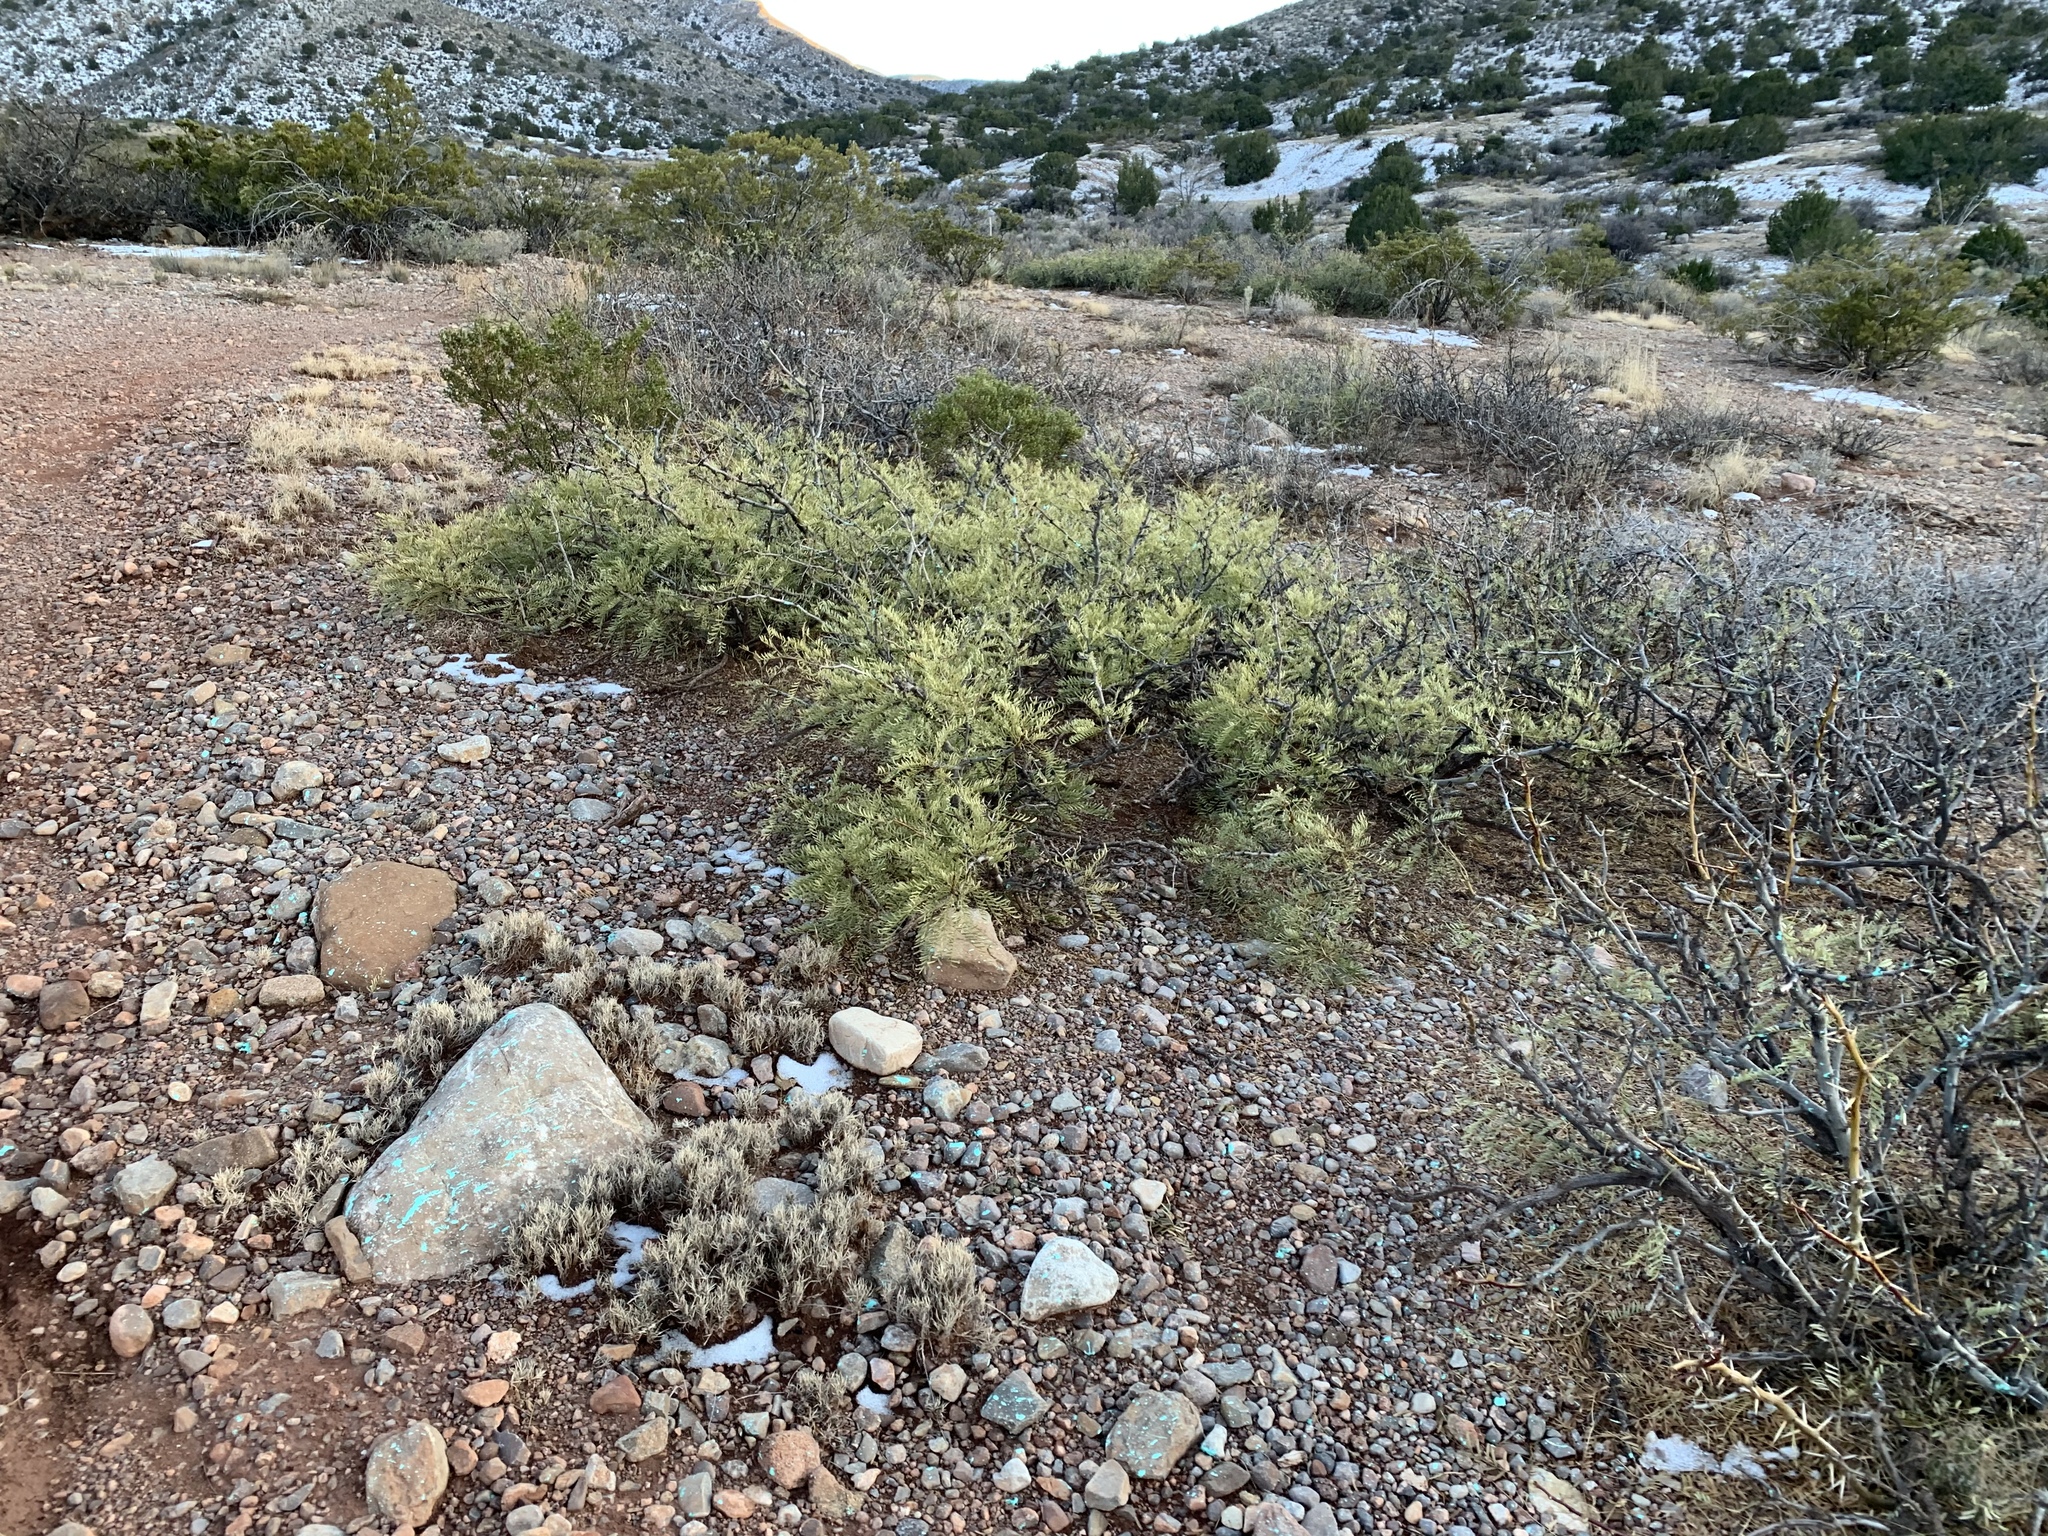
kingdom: Plantae
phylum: Tracheophyta
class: Magnoliopsida
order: Fabales
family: Fabaceae
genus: Prosopis
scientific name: Prosopis glandulosa
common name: Honey mesquite
